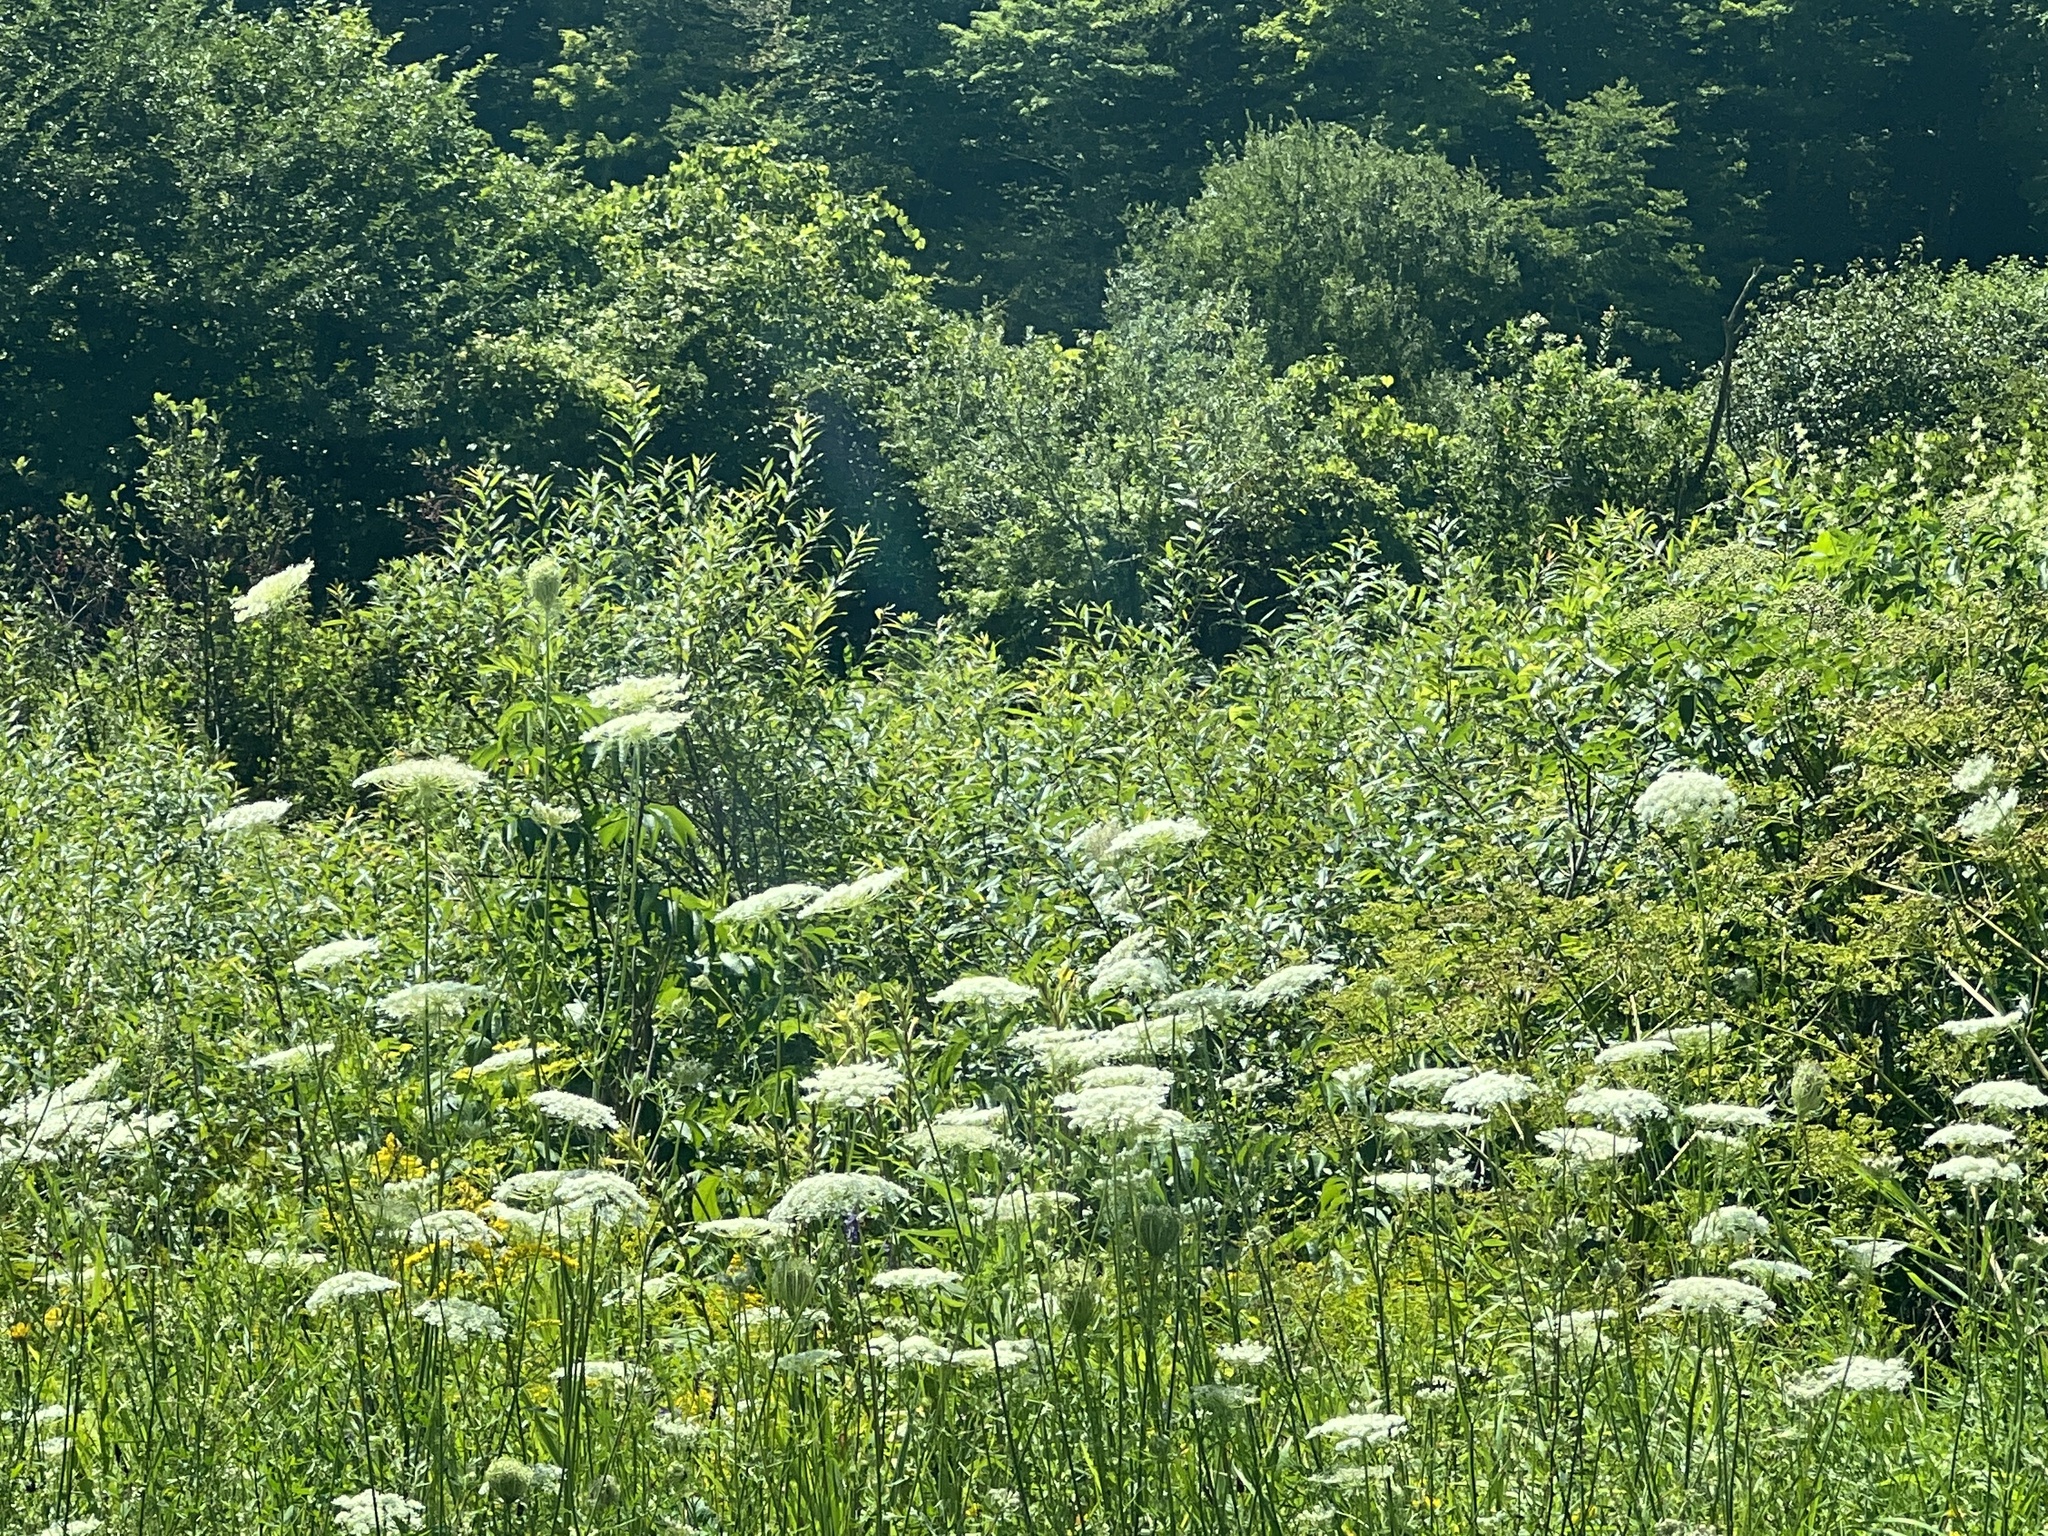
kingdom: Plantae
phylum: Tracheophyta
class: Magnoliopsida
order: Apiales
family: Apiaceae
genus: Daucus
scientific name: Daucus carota
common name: Wild carrot
